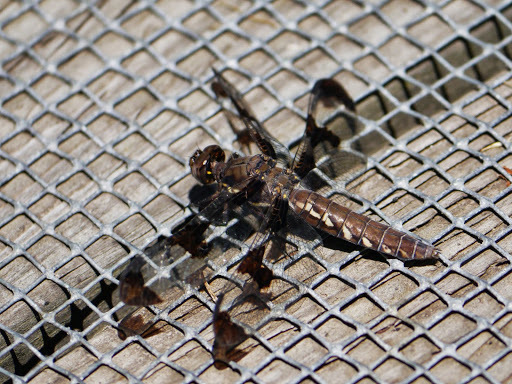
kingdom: Animalia
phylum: Arthropoda
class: Insecta
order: Odonata
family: Libellulidae
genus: Plathemis
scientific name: Plathemis lydia
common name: Common whitetail
